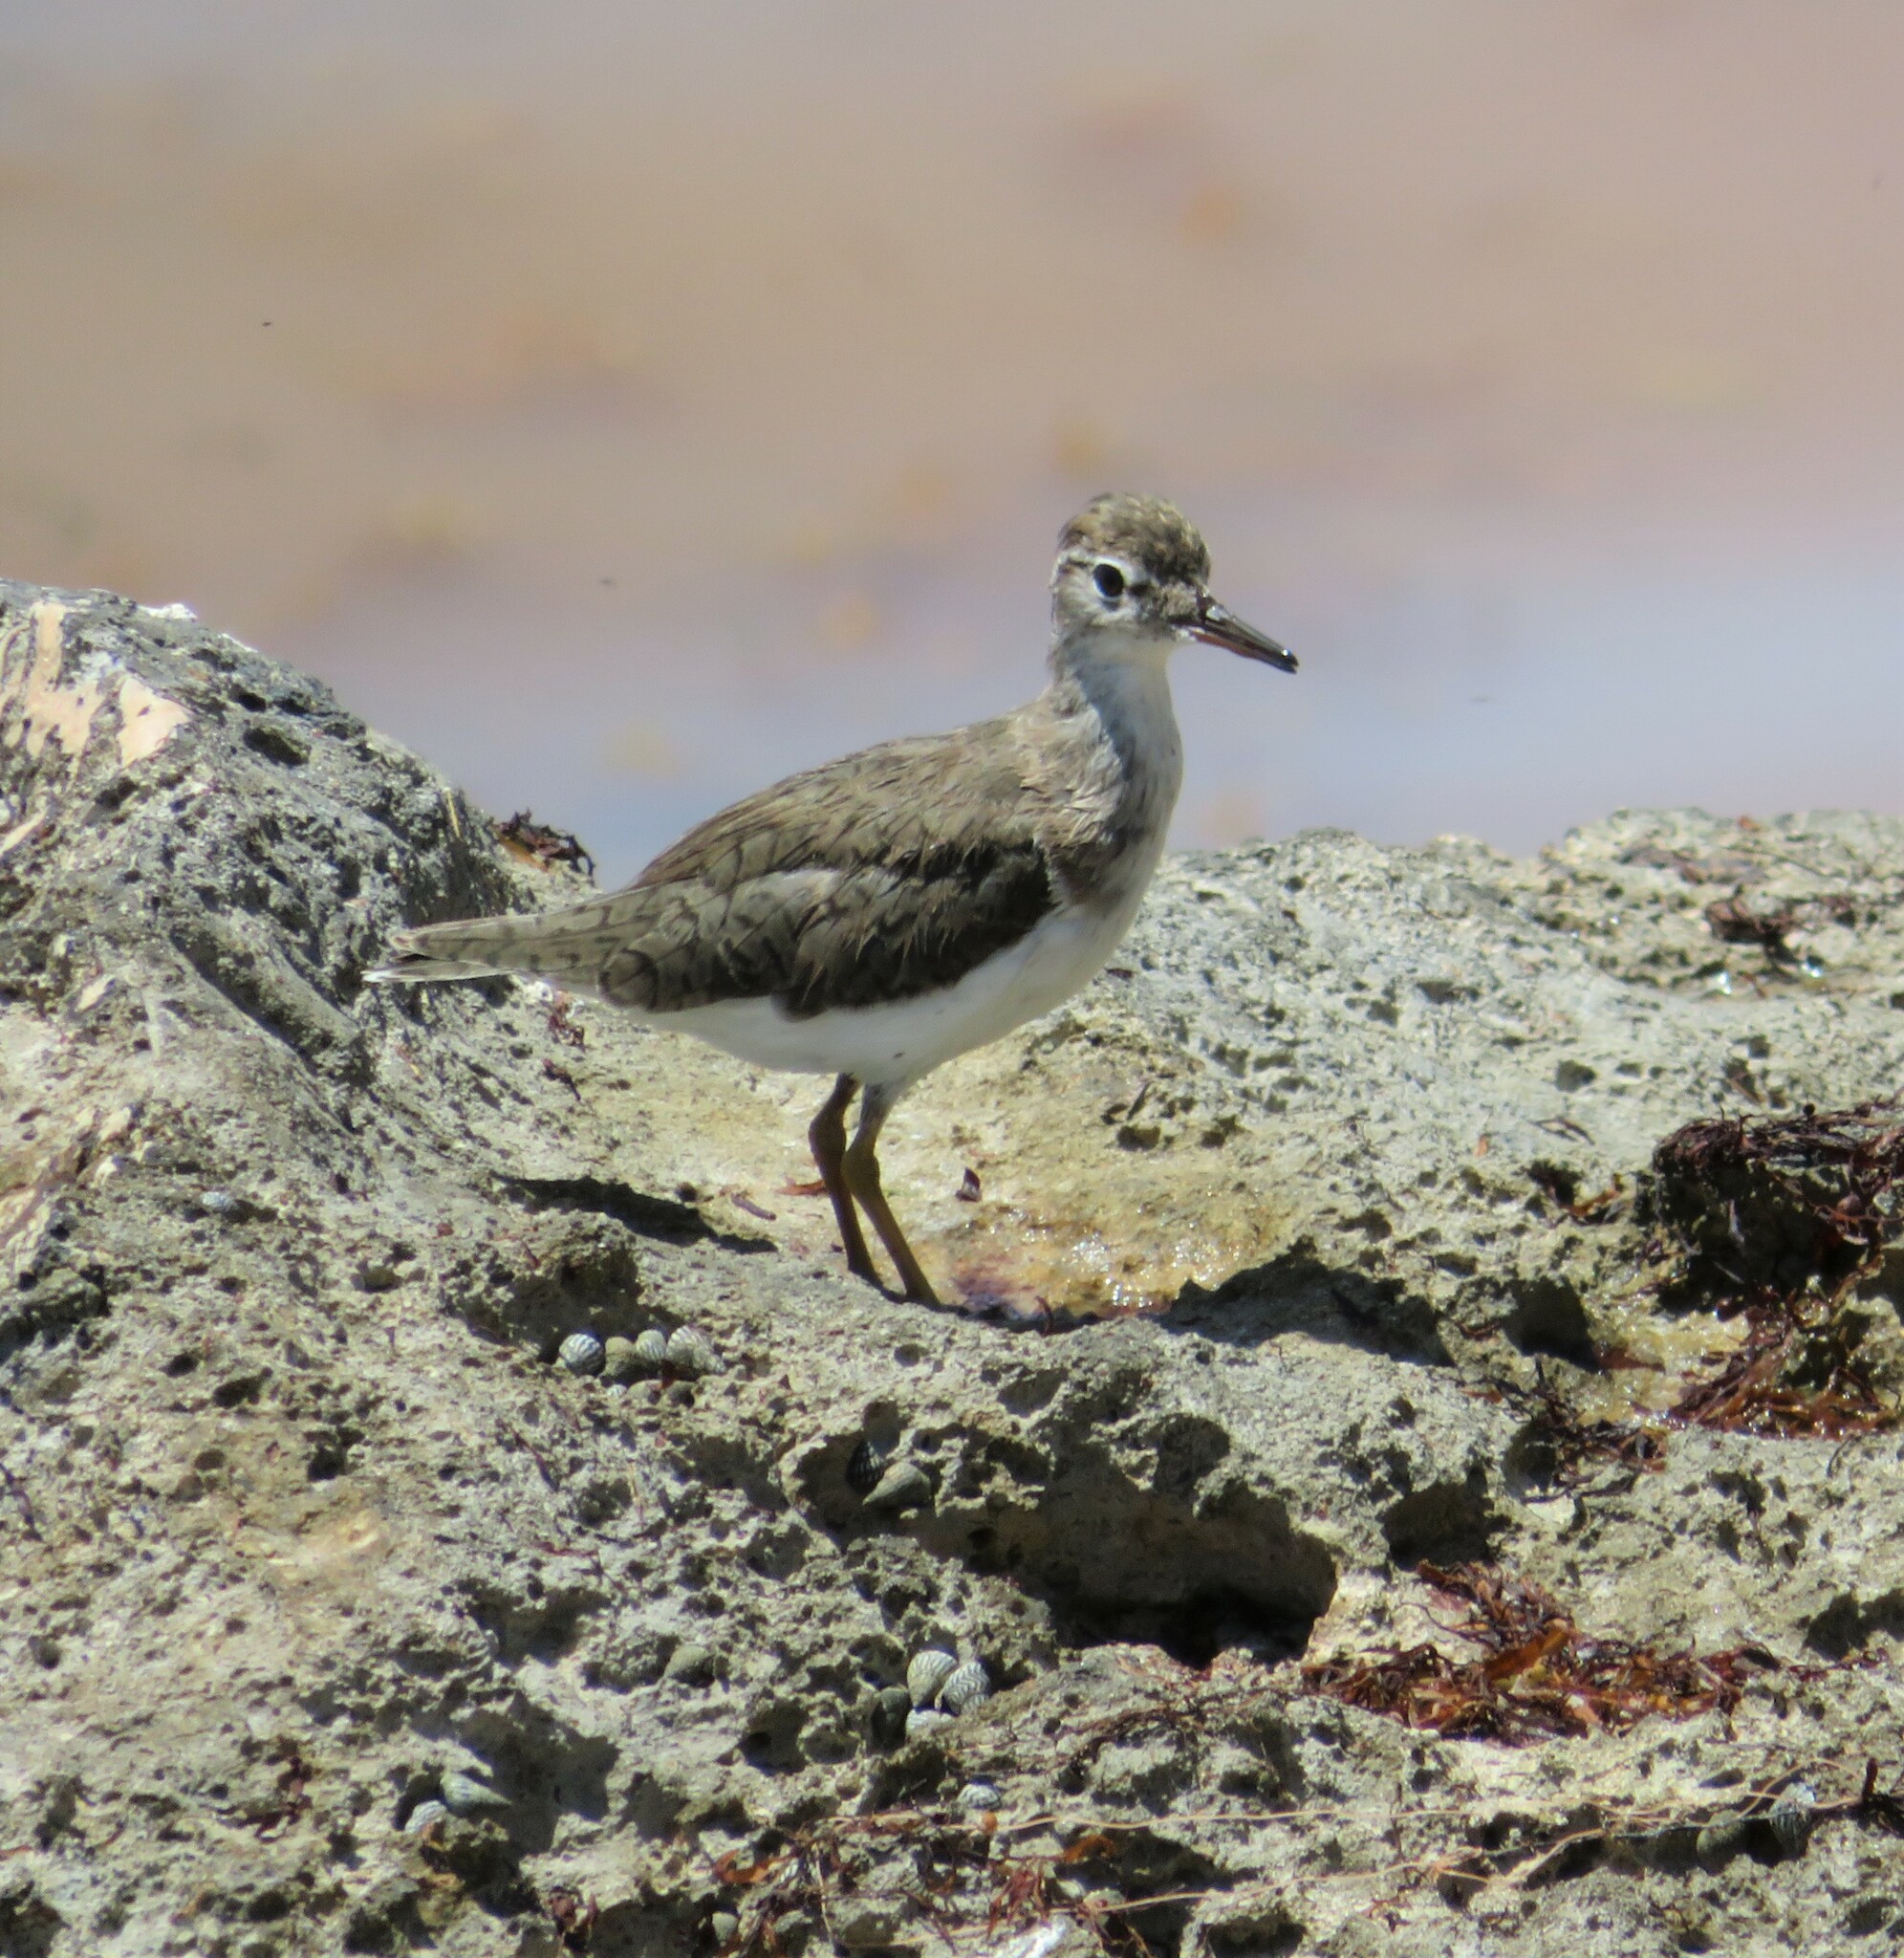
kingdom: Animalia
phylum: Chordata
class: Aves
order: Charadriiformes
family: Scolopacidae
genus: Actitis
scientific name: Actitis macularius
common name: Spotted sandpiper
